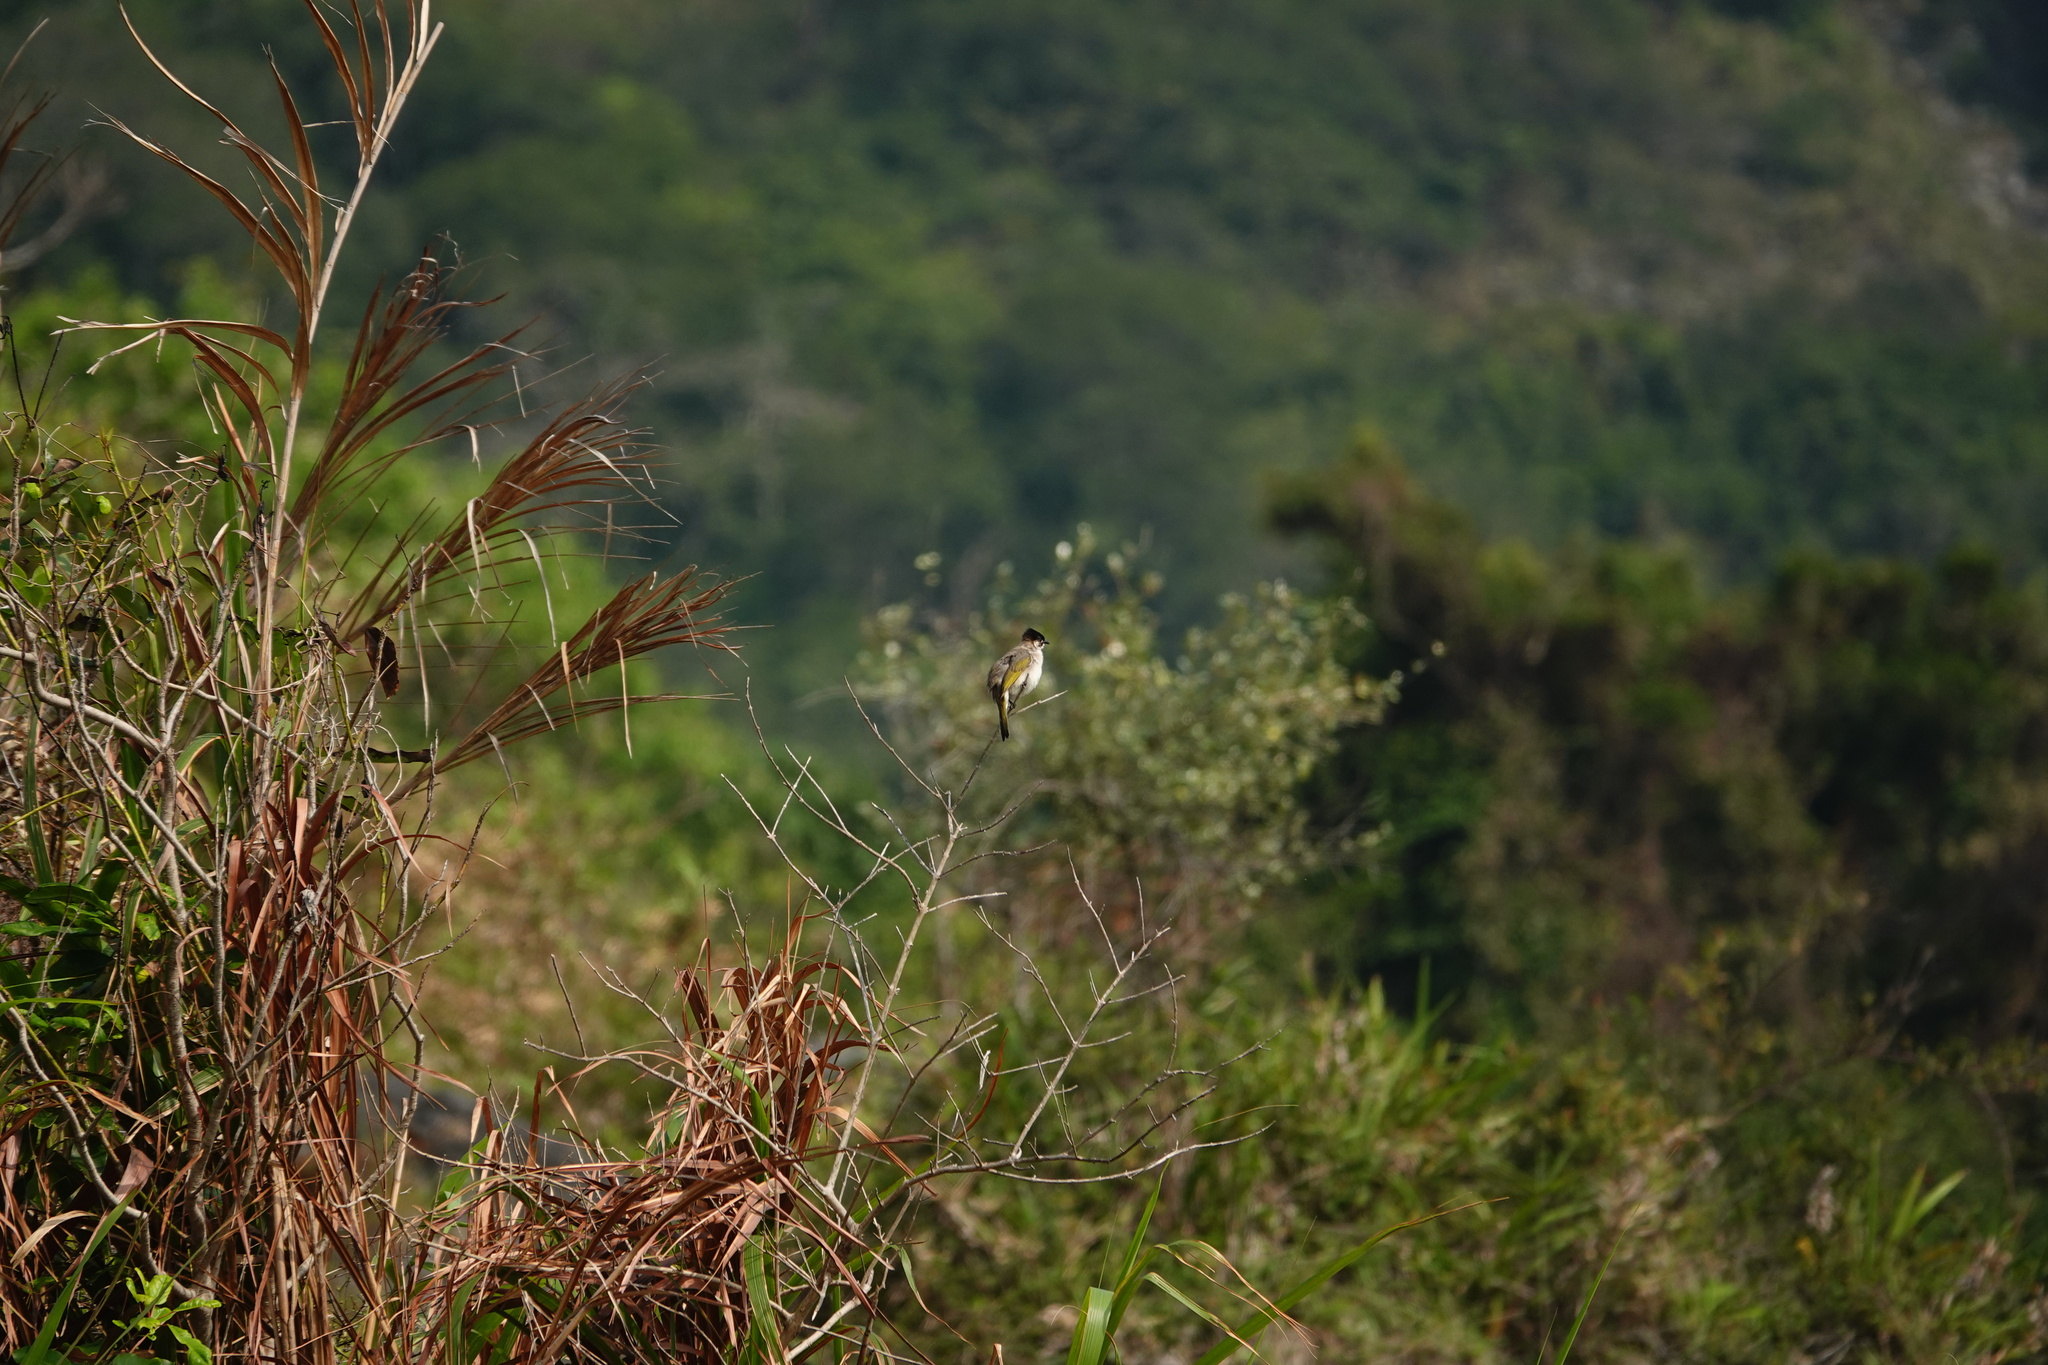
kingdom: Animalia
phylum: Chordata
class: Aves
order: Passeriformes
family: Pycnonotidae
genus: Pycnonotus
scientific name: Pycnonotus taivanus
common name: Styan's bulbul
